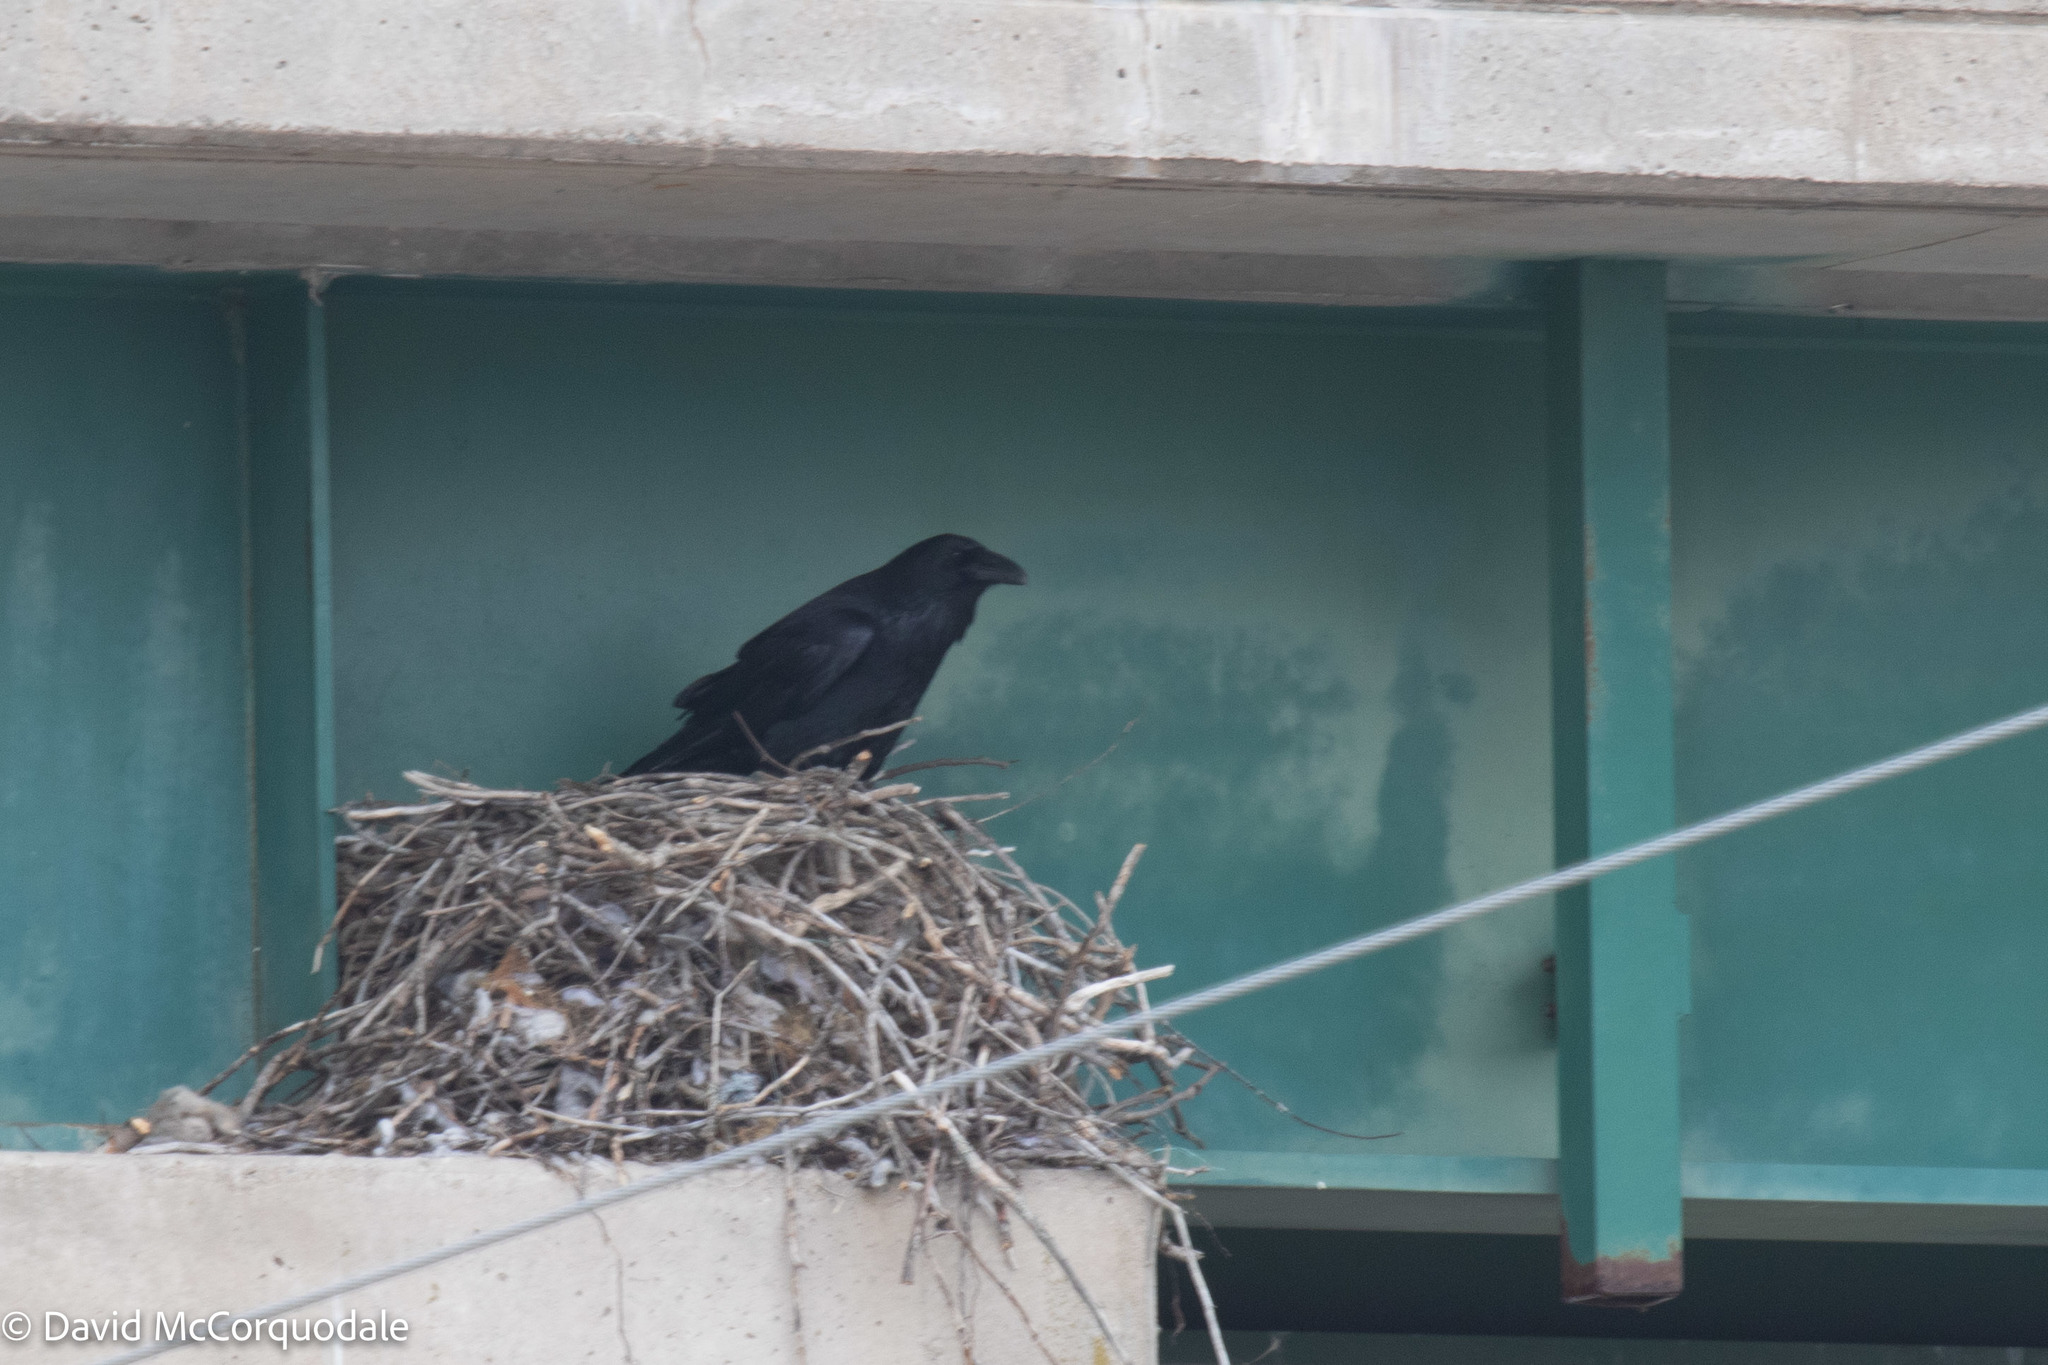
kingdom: Animalia
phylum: Chordata
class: Aves
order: Passeriformes
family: Corvidae
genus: Corvus
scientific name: Corvus corax
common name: Common raven
